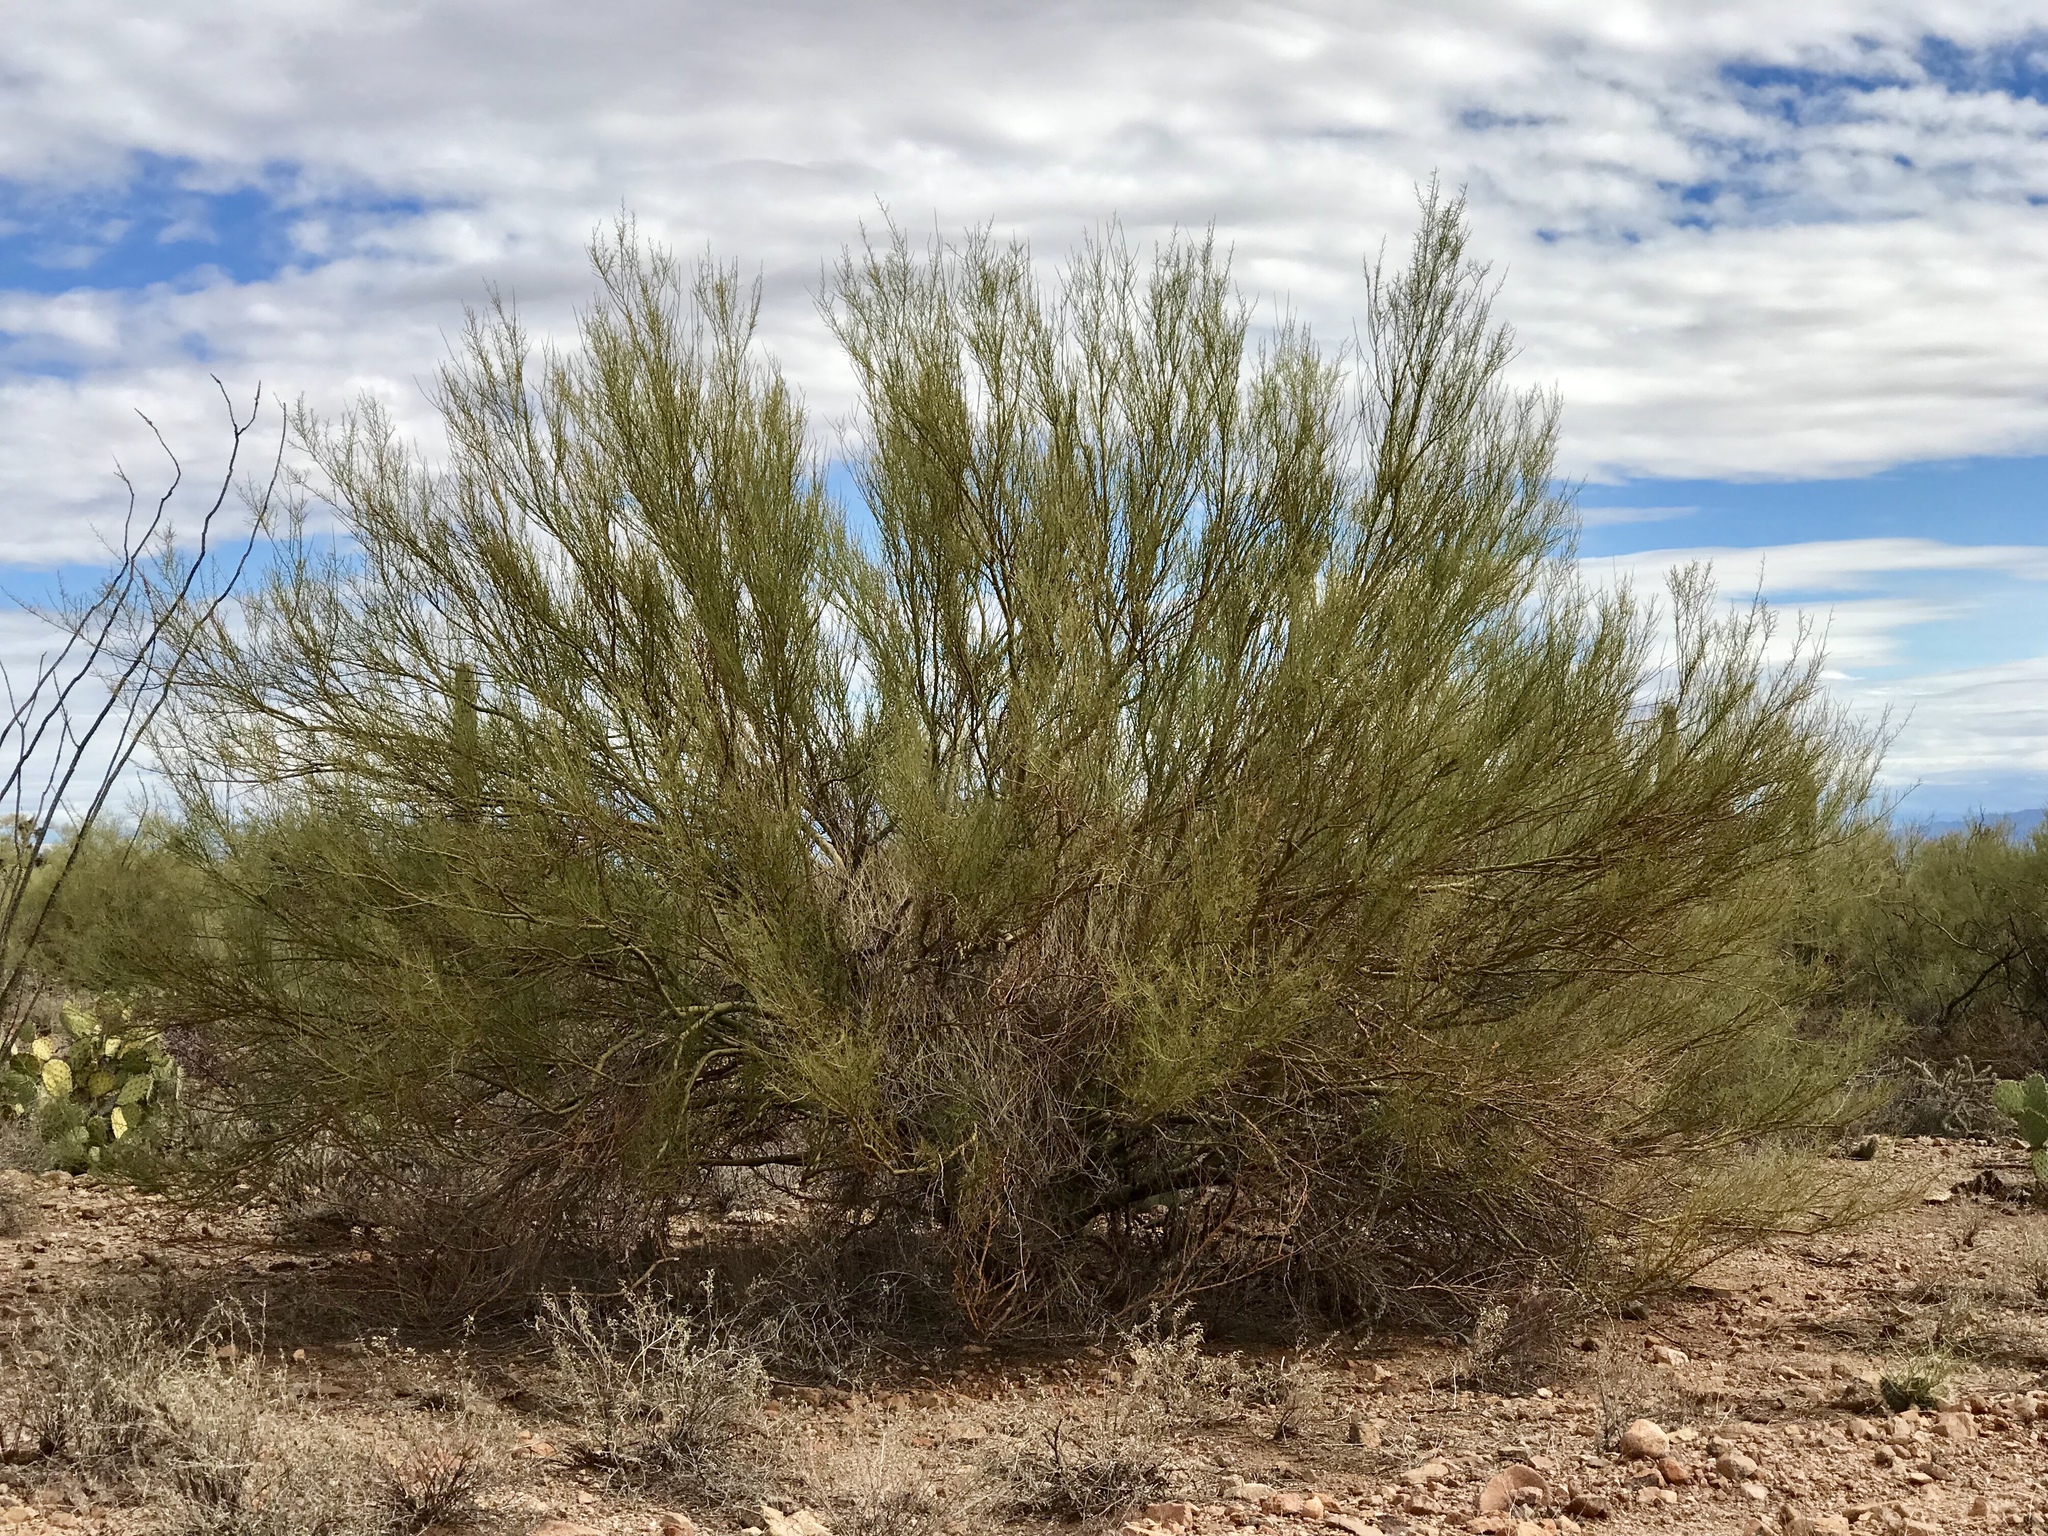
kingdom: Plantae
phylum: Tracheophyta
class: Magnoliopsida
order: Fabales
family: Fabaceae
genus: Parkinsonia
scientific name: Parkinsonia microphylla
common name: Yellow paloverde
